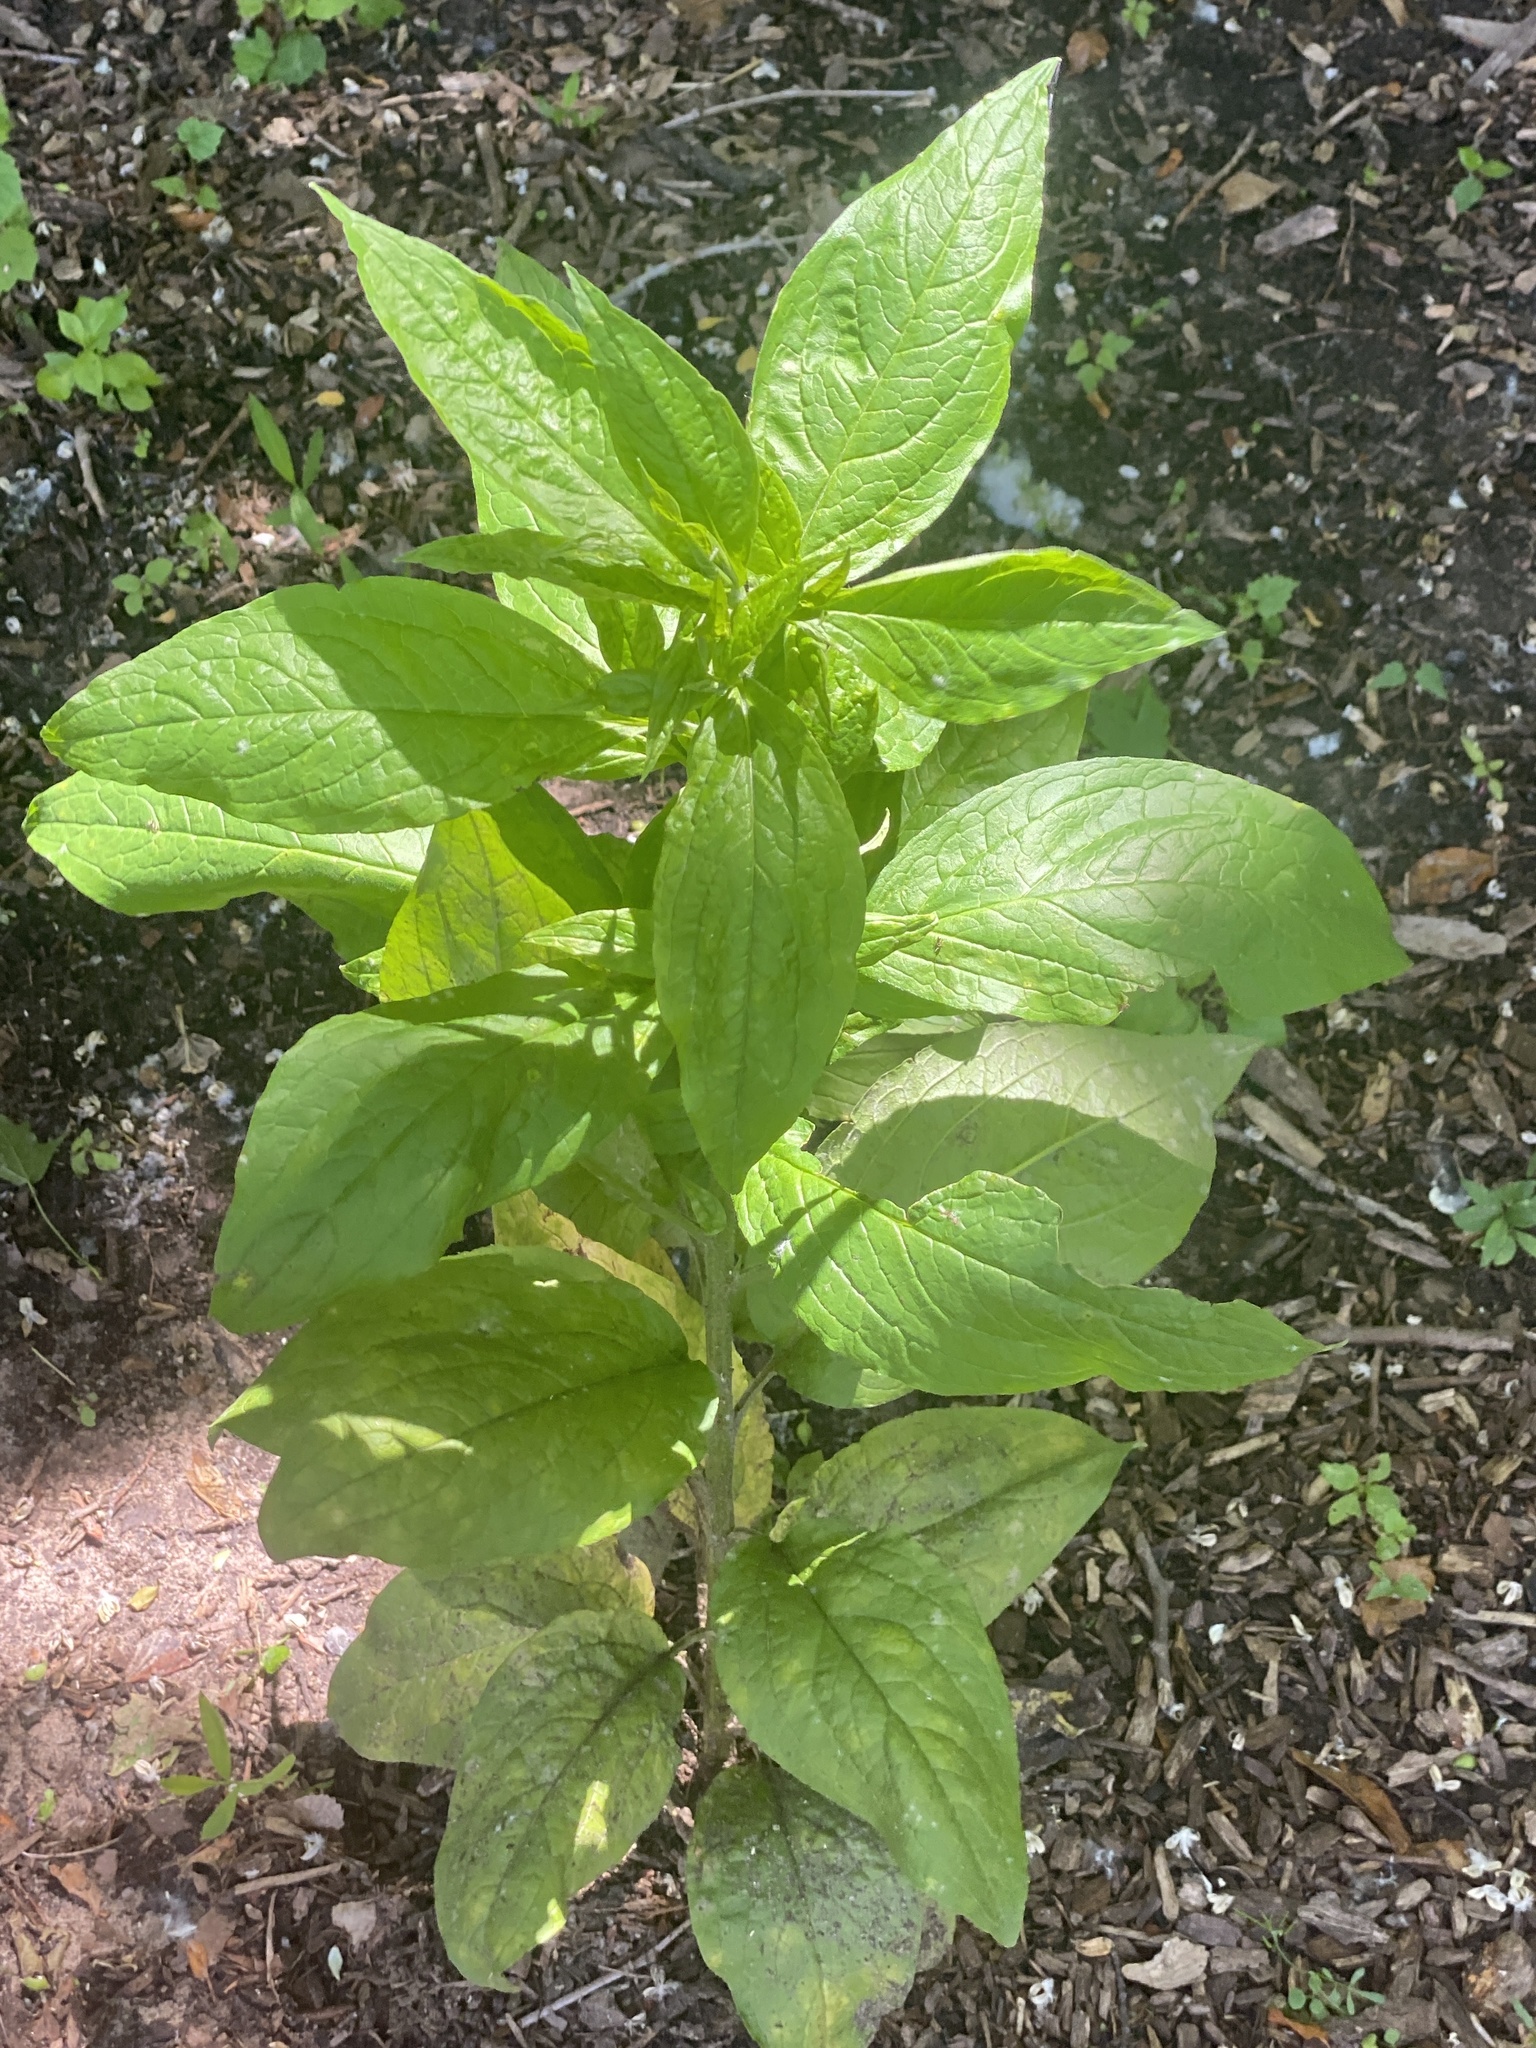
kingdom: Plantae
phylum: Tracheophyta
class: Magnoliopsida
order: Boraginales
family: Boraginaceae
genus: Hackelia
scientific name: Hackelia virginiana
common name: Beggar's-lice
